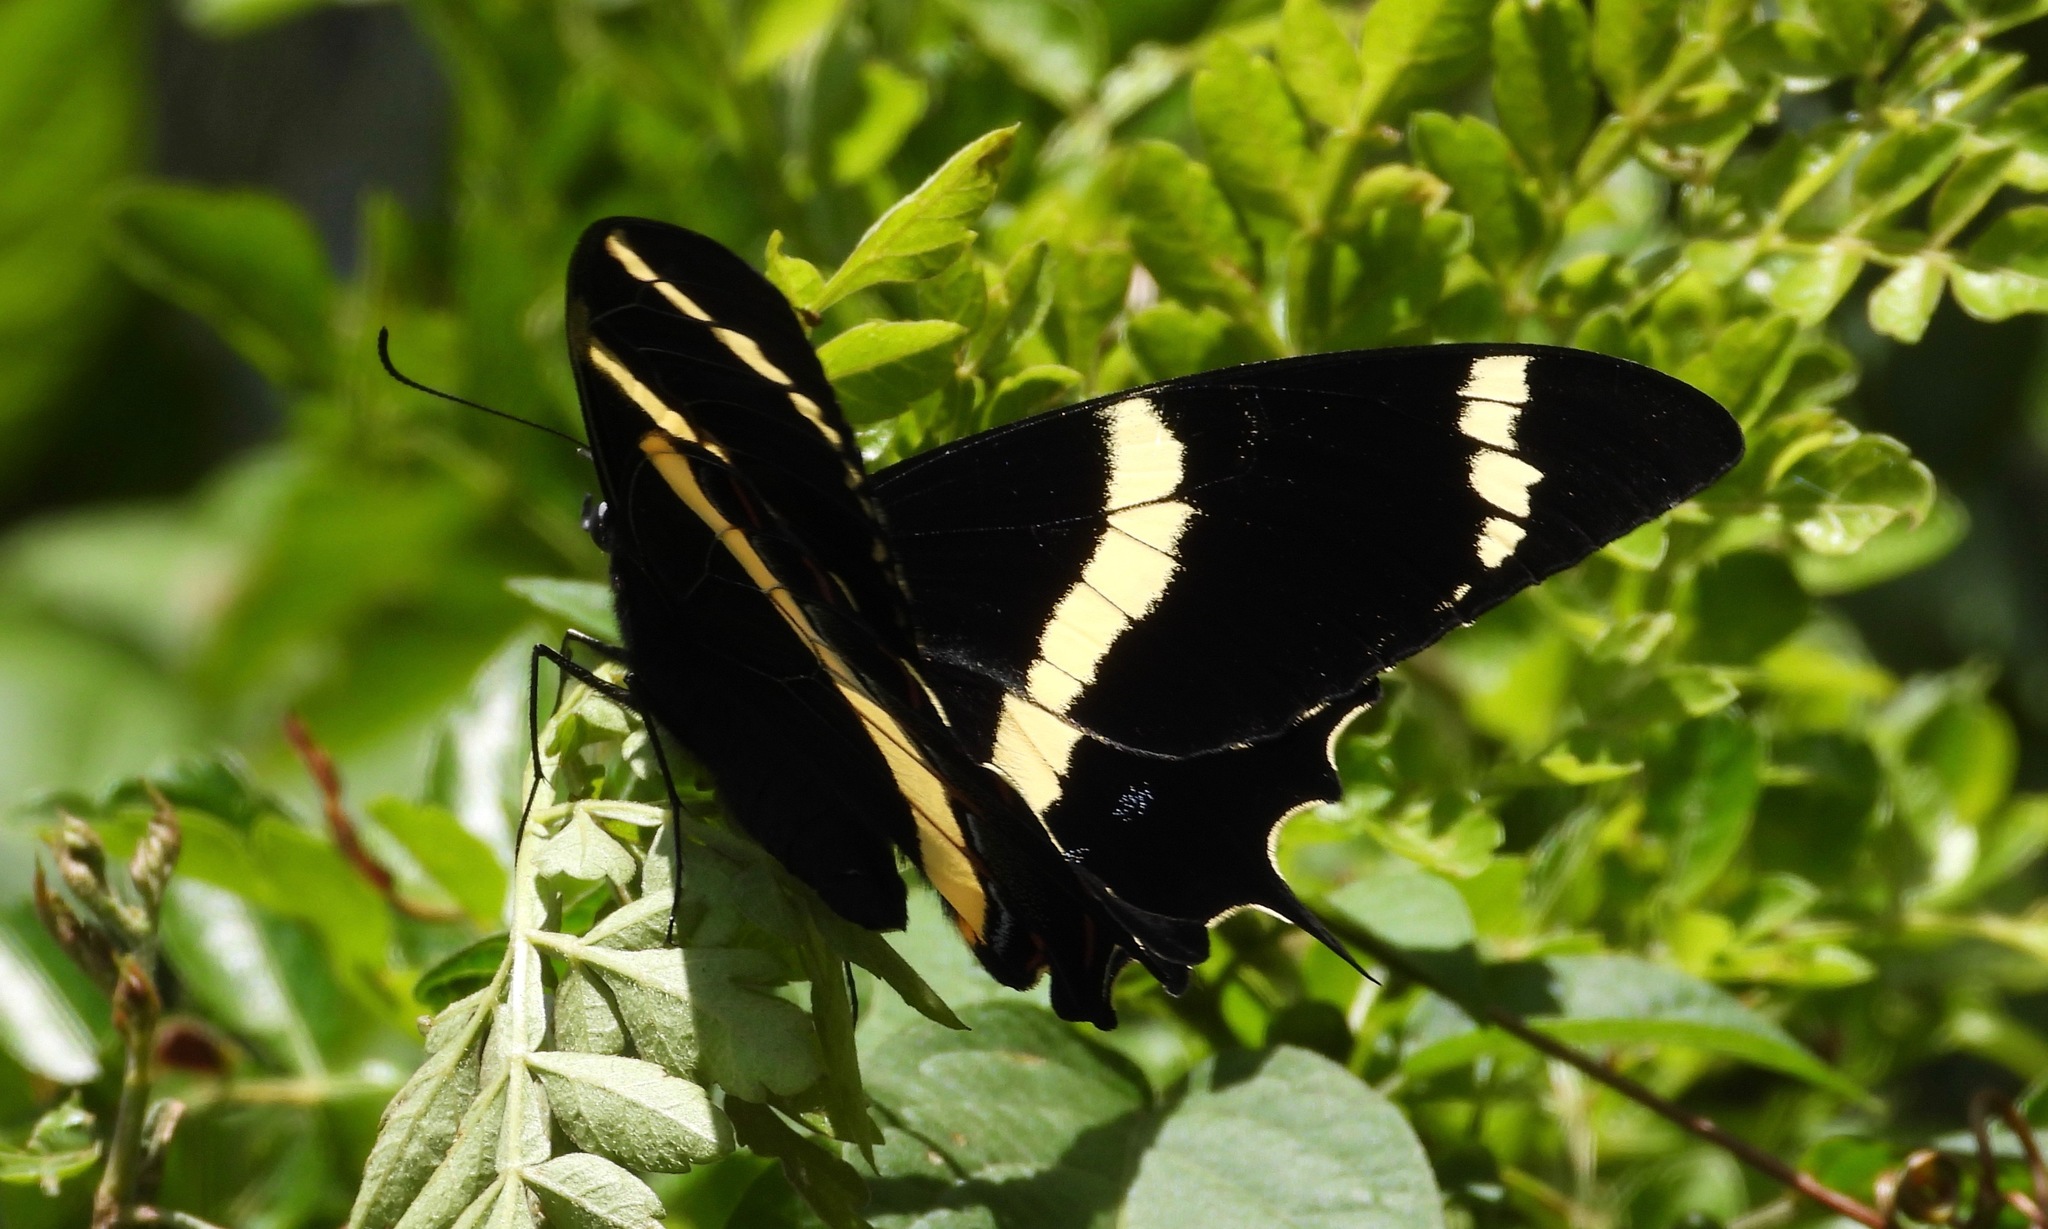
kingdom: Animalia
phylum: Arthropoda
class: Insecta
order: Lepidoptera
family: Papilionidae
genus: Papilio
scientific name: Papilio garamas
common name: Magnificent swallowtail
